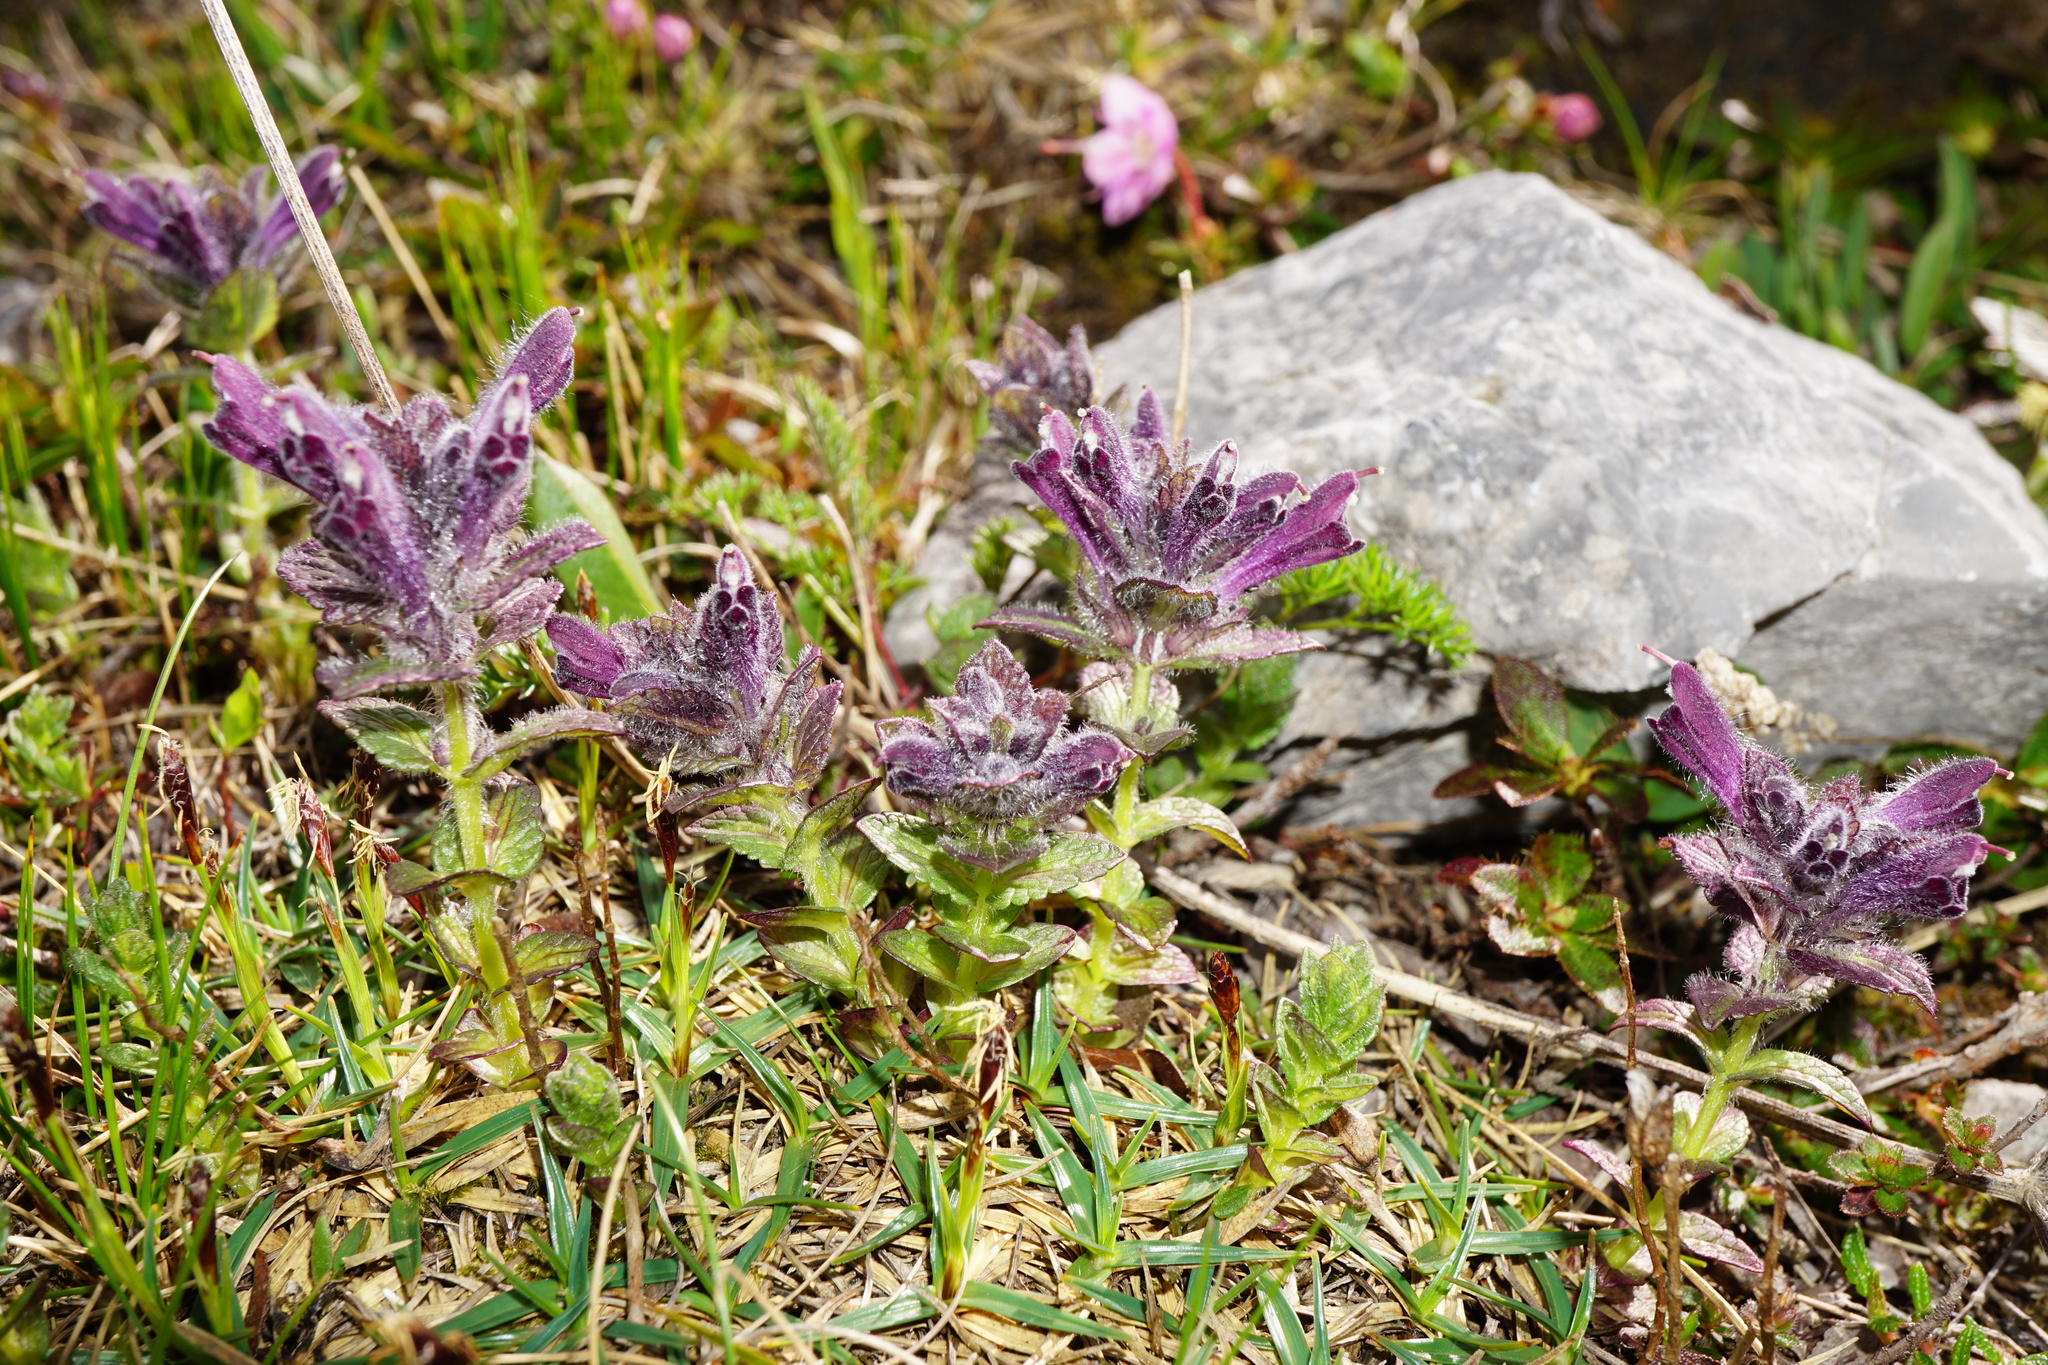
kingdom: Plantae
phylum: Tracheophyta
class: Magnoliopsida
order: Lamiales
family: Orobanchaceae
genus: Bartsia
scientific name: Bartsia alpina
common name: Alpine bartsia
